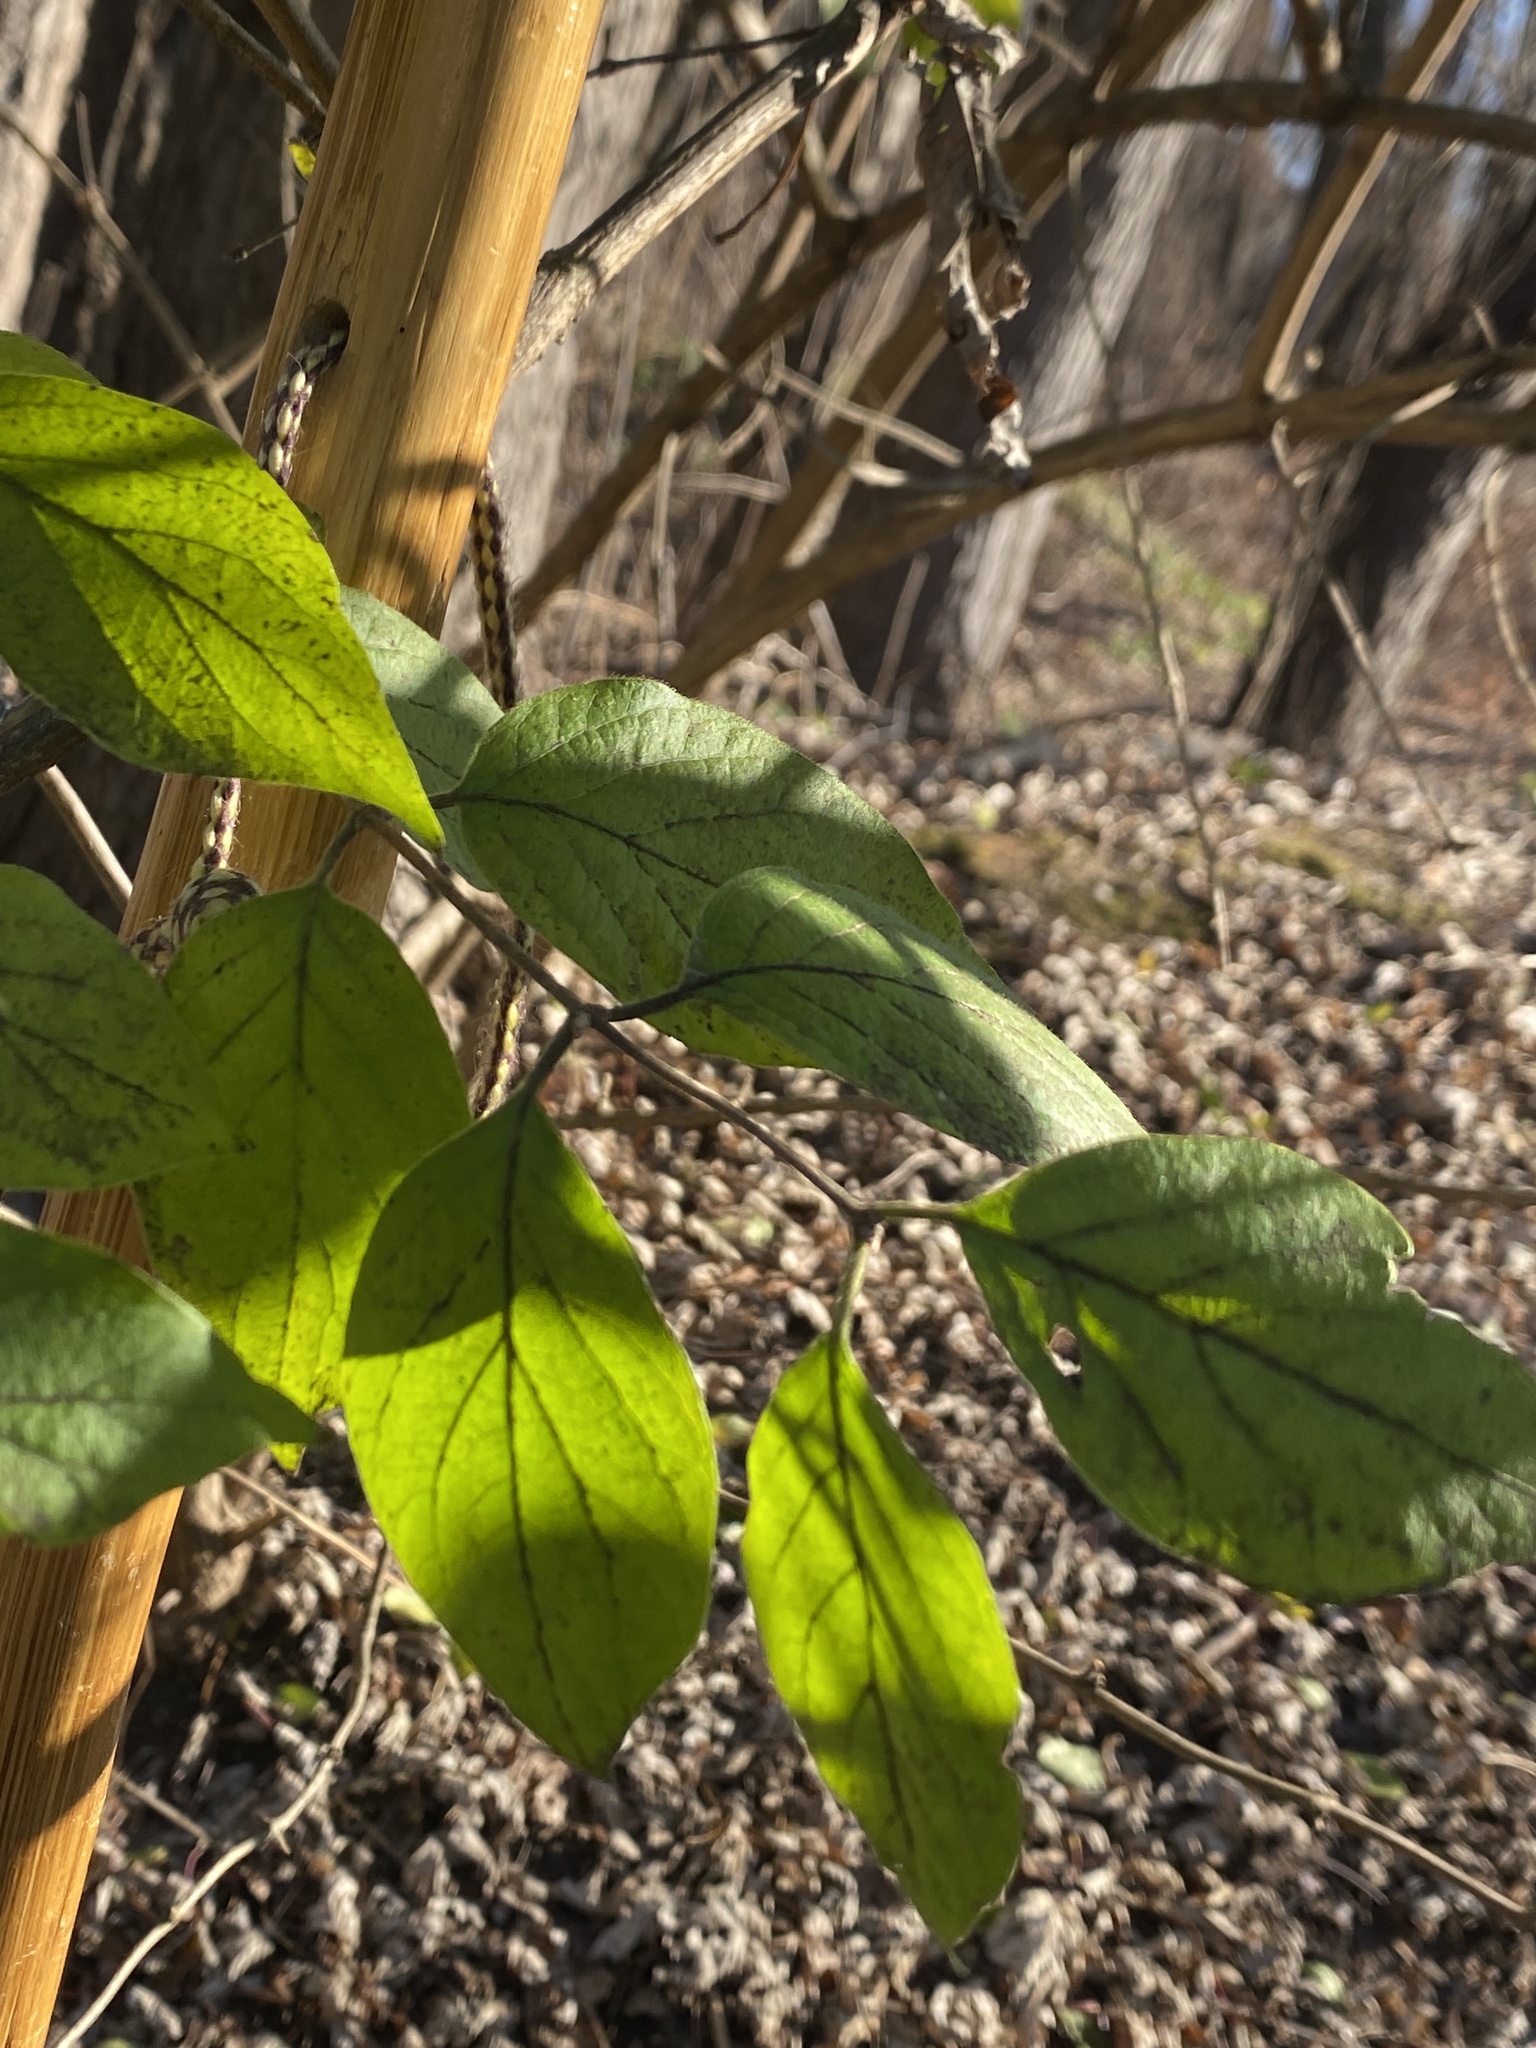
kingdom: Plantae
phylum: Tracheophyta
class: Magnoliopsida
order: Dipsacales
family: Caprifoliaceae
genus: Lonicera
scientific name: Lonicera maackii
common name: Amur honeysuckle
